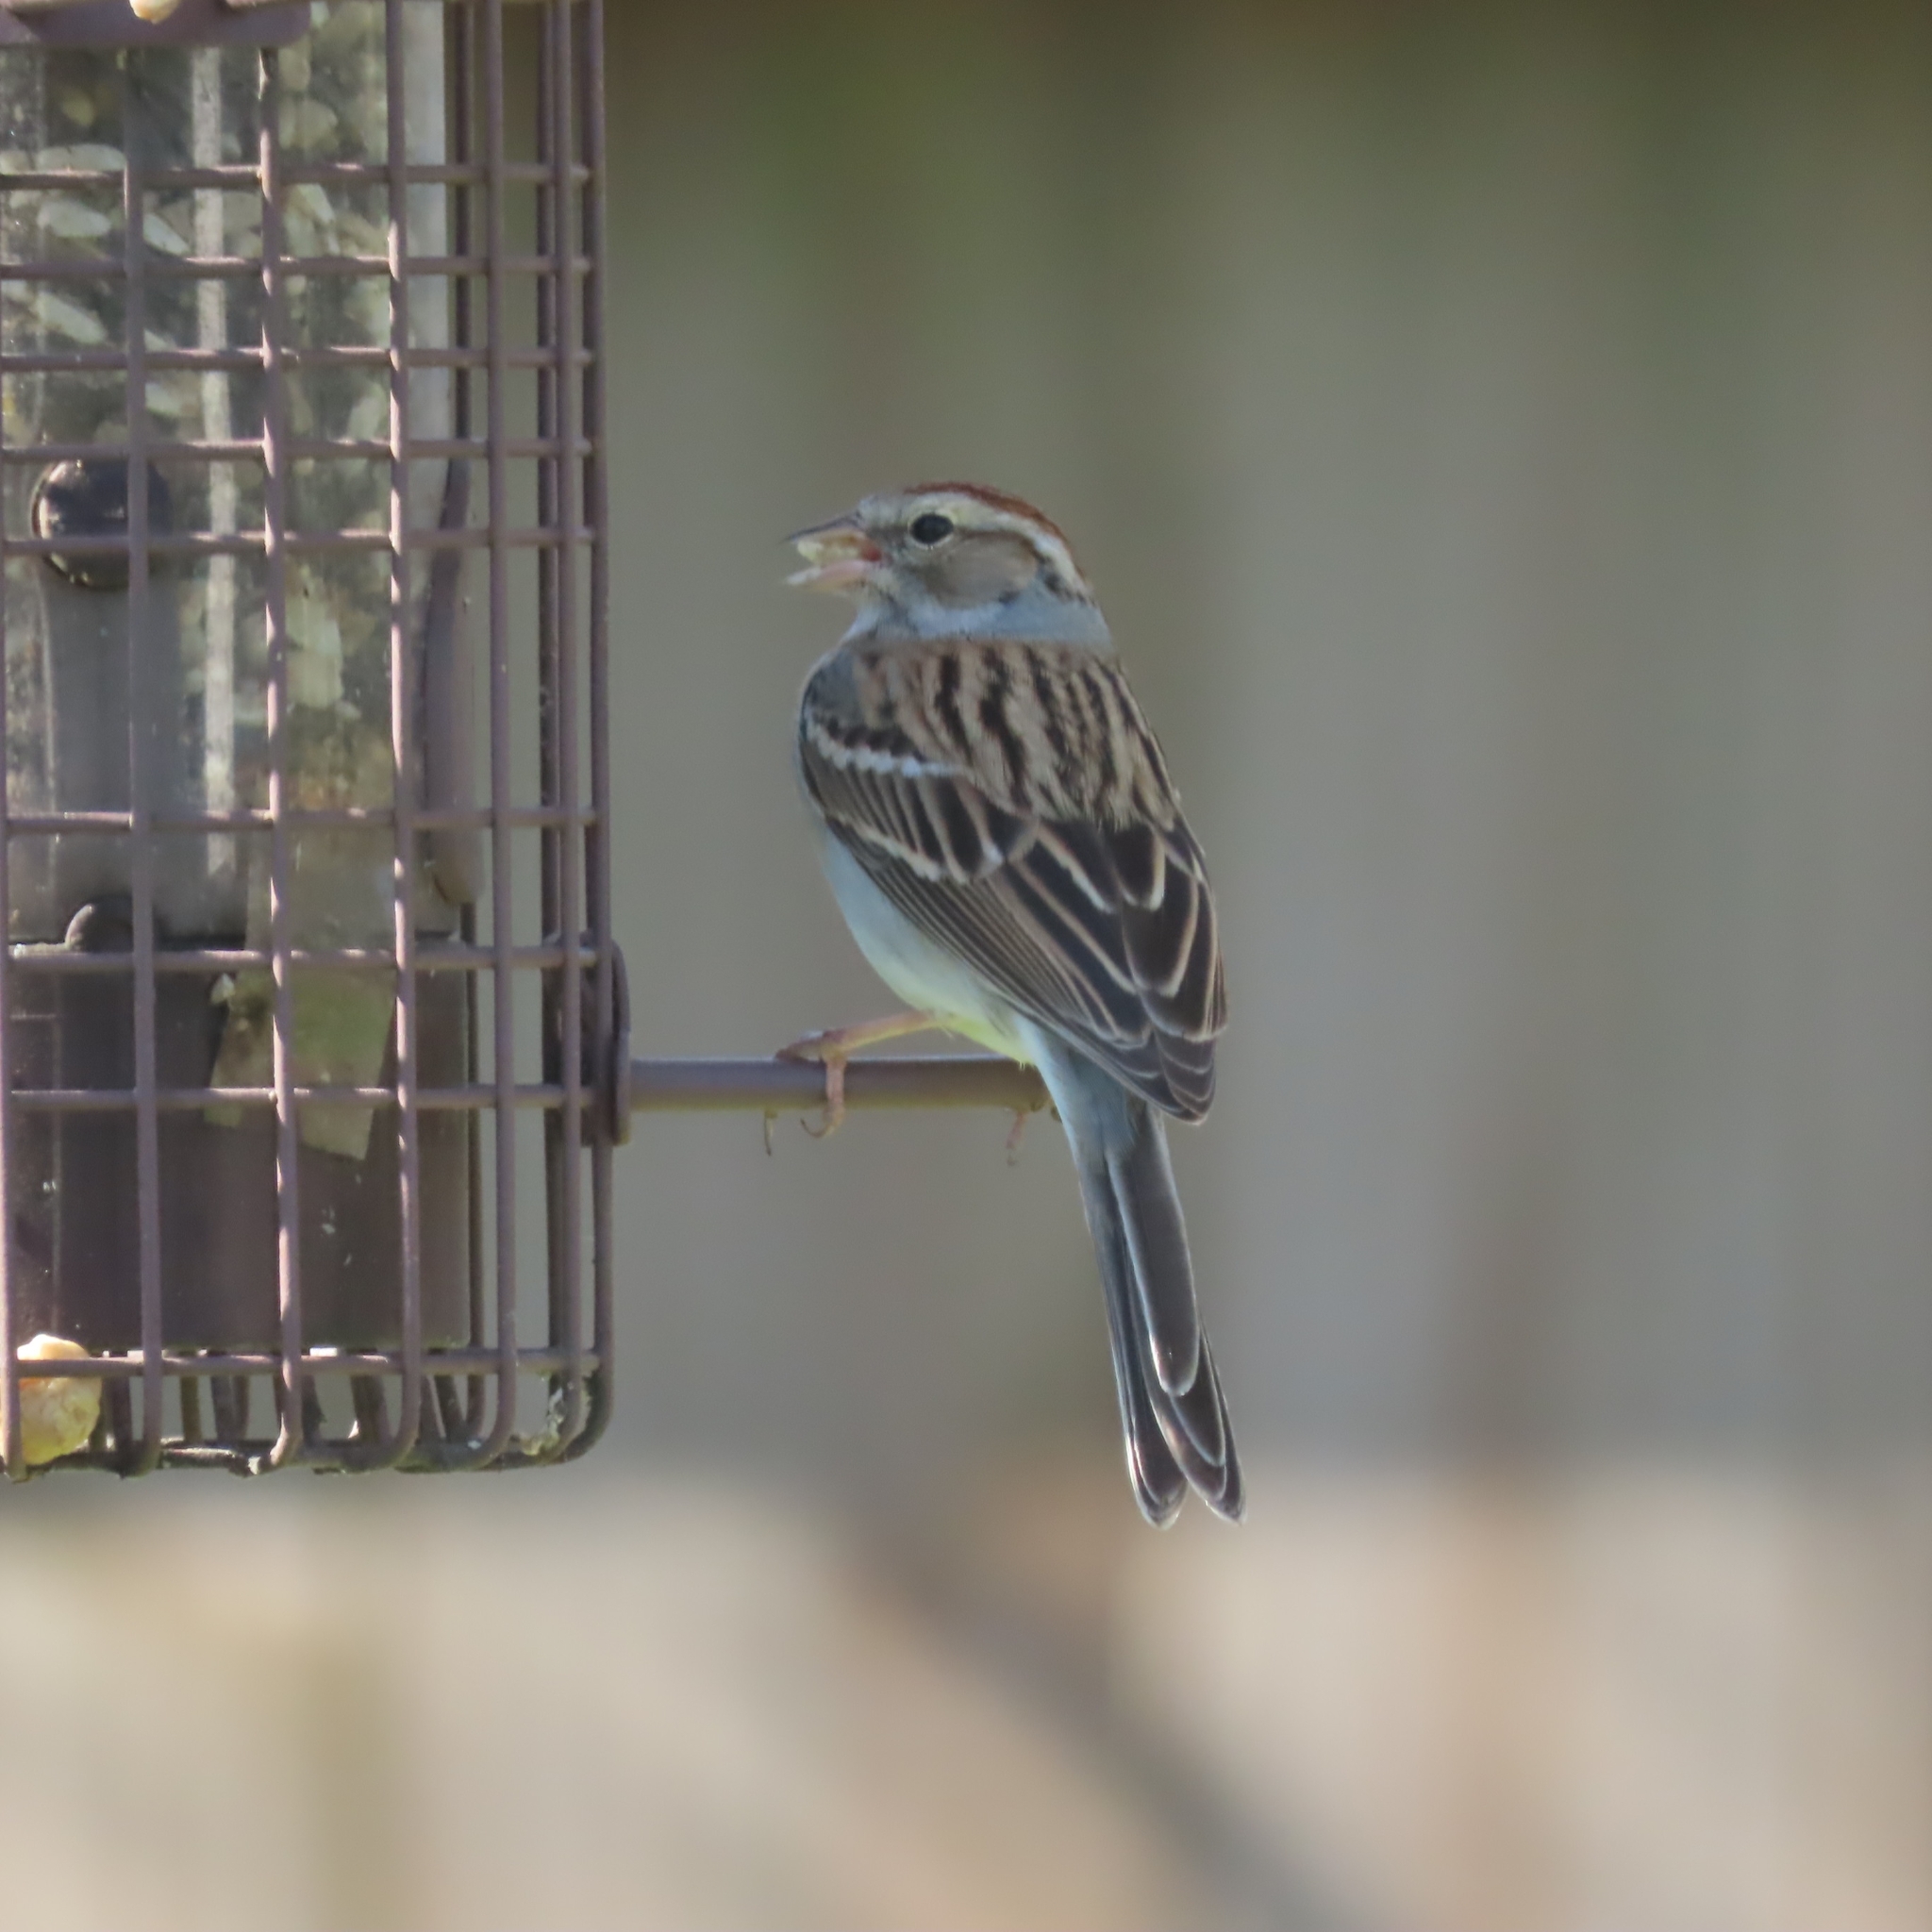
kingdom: Animalia
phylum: Chordata
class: Aves
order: Passeriformes
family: Passerellidae
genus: Spizella
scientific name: Spizella passerina
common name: Chipping sparrow
